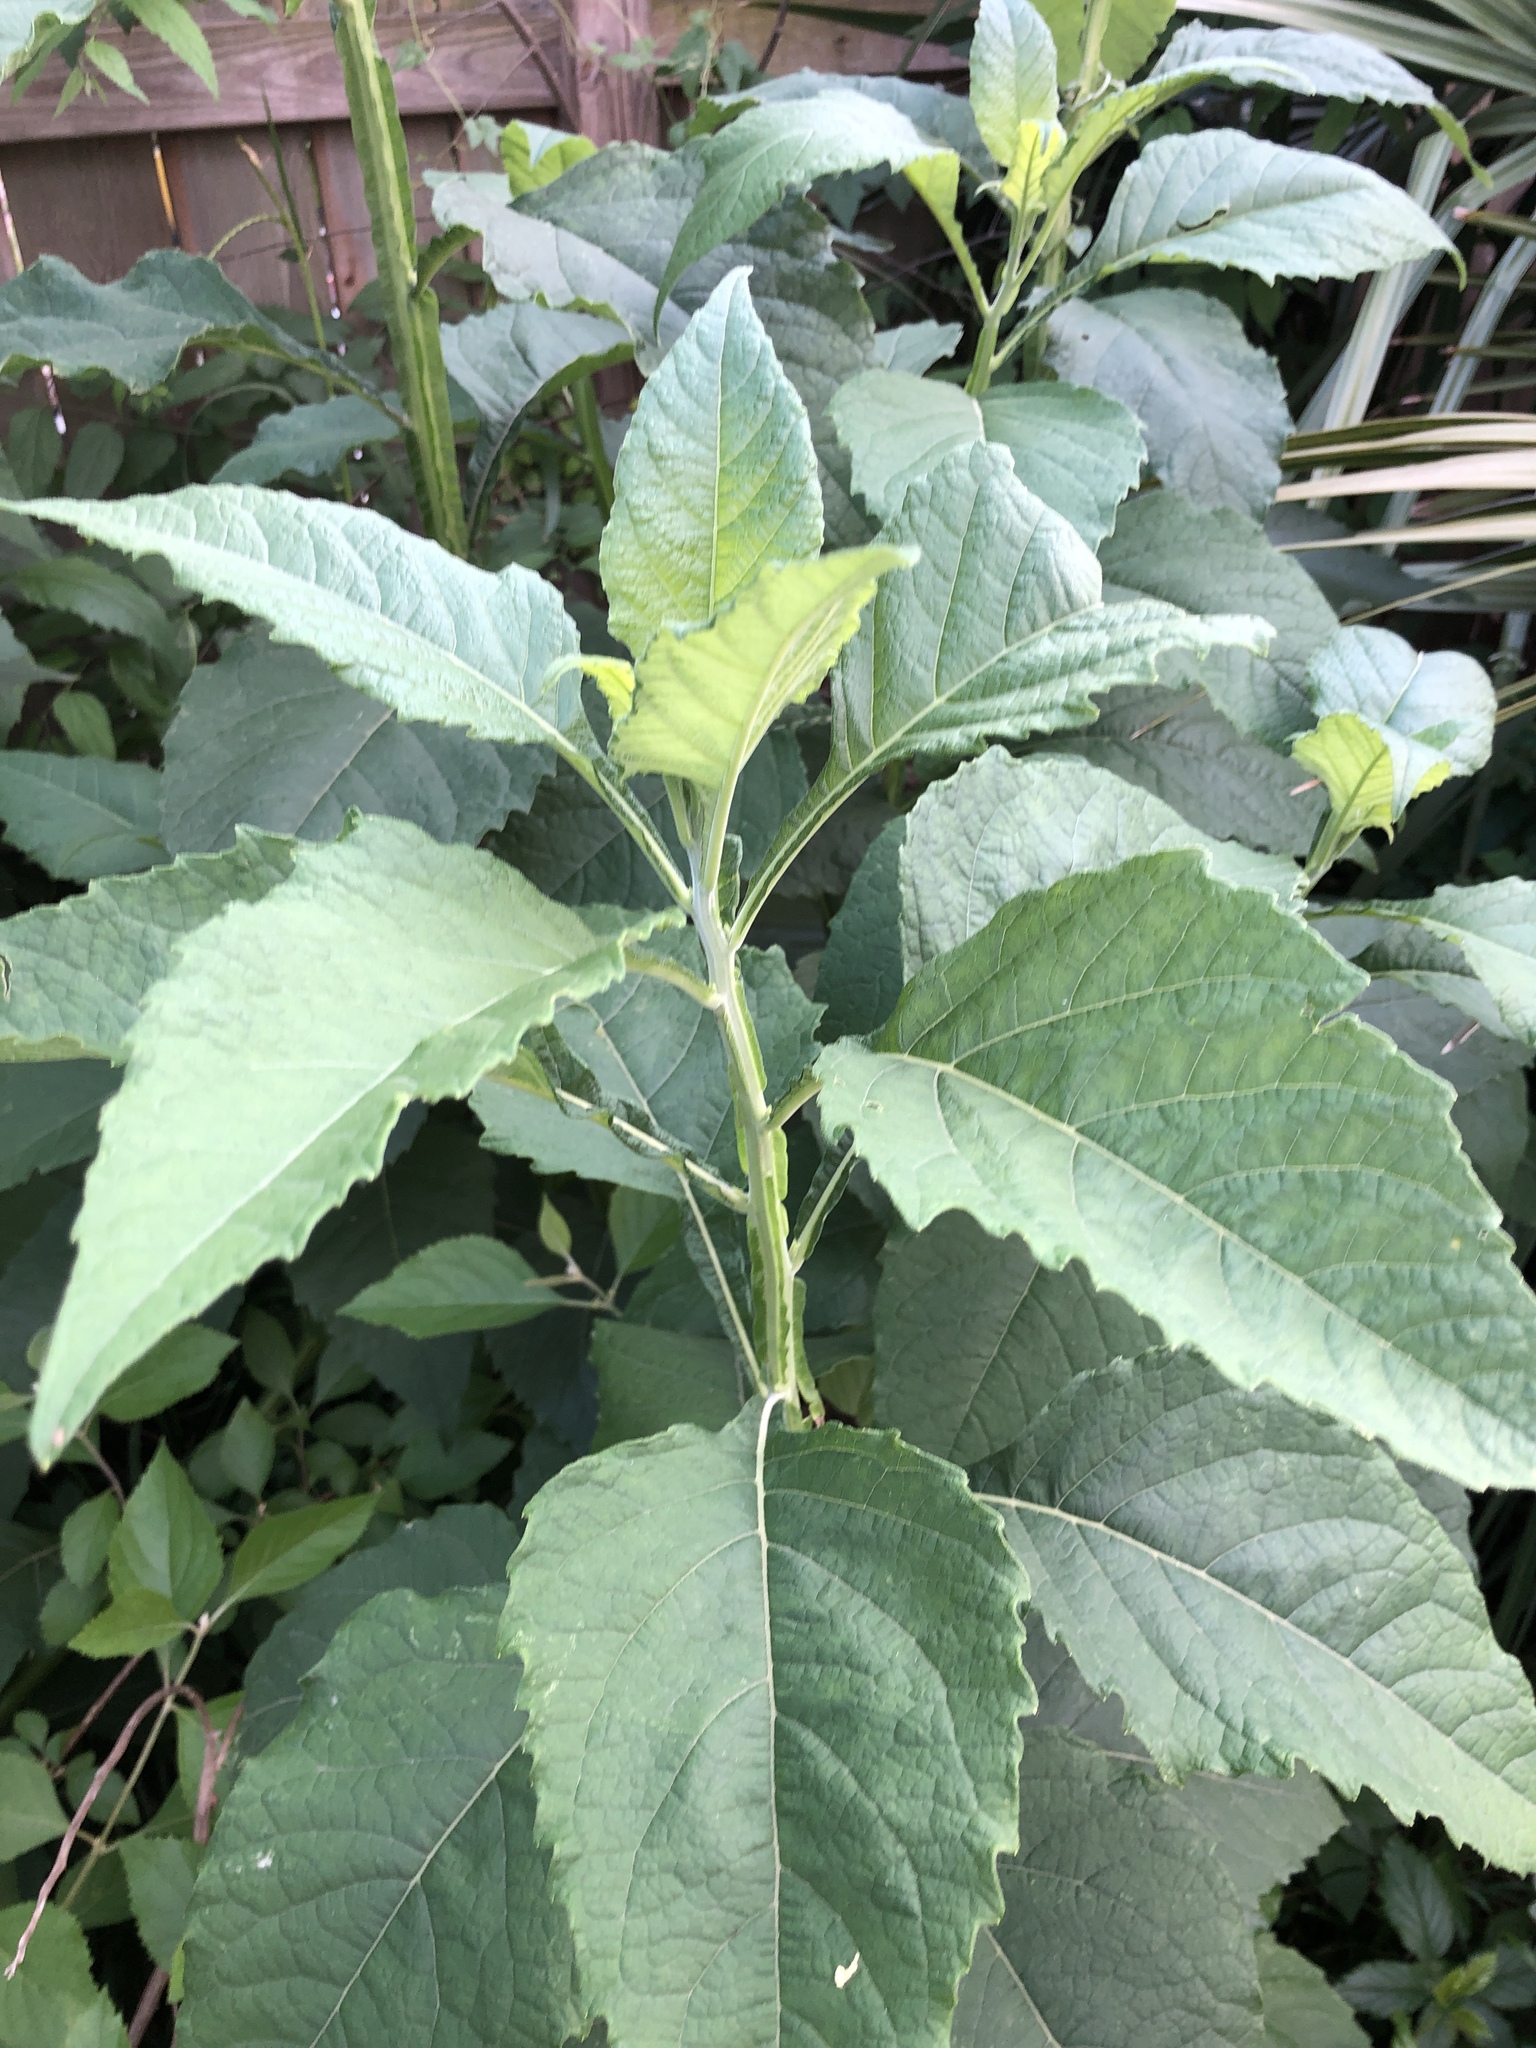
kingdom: Plantae
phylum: Tracheophyta
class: Magnoliopsida
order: Asterales
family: Asteraceae
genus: Verbesina
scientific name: Verbesina virginica
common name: Frostweed
